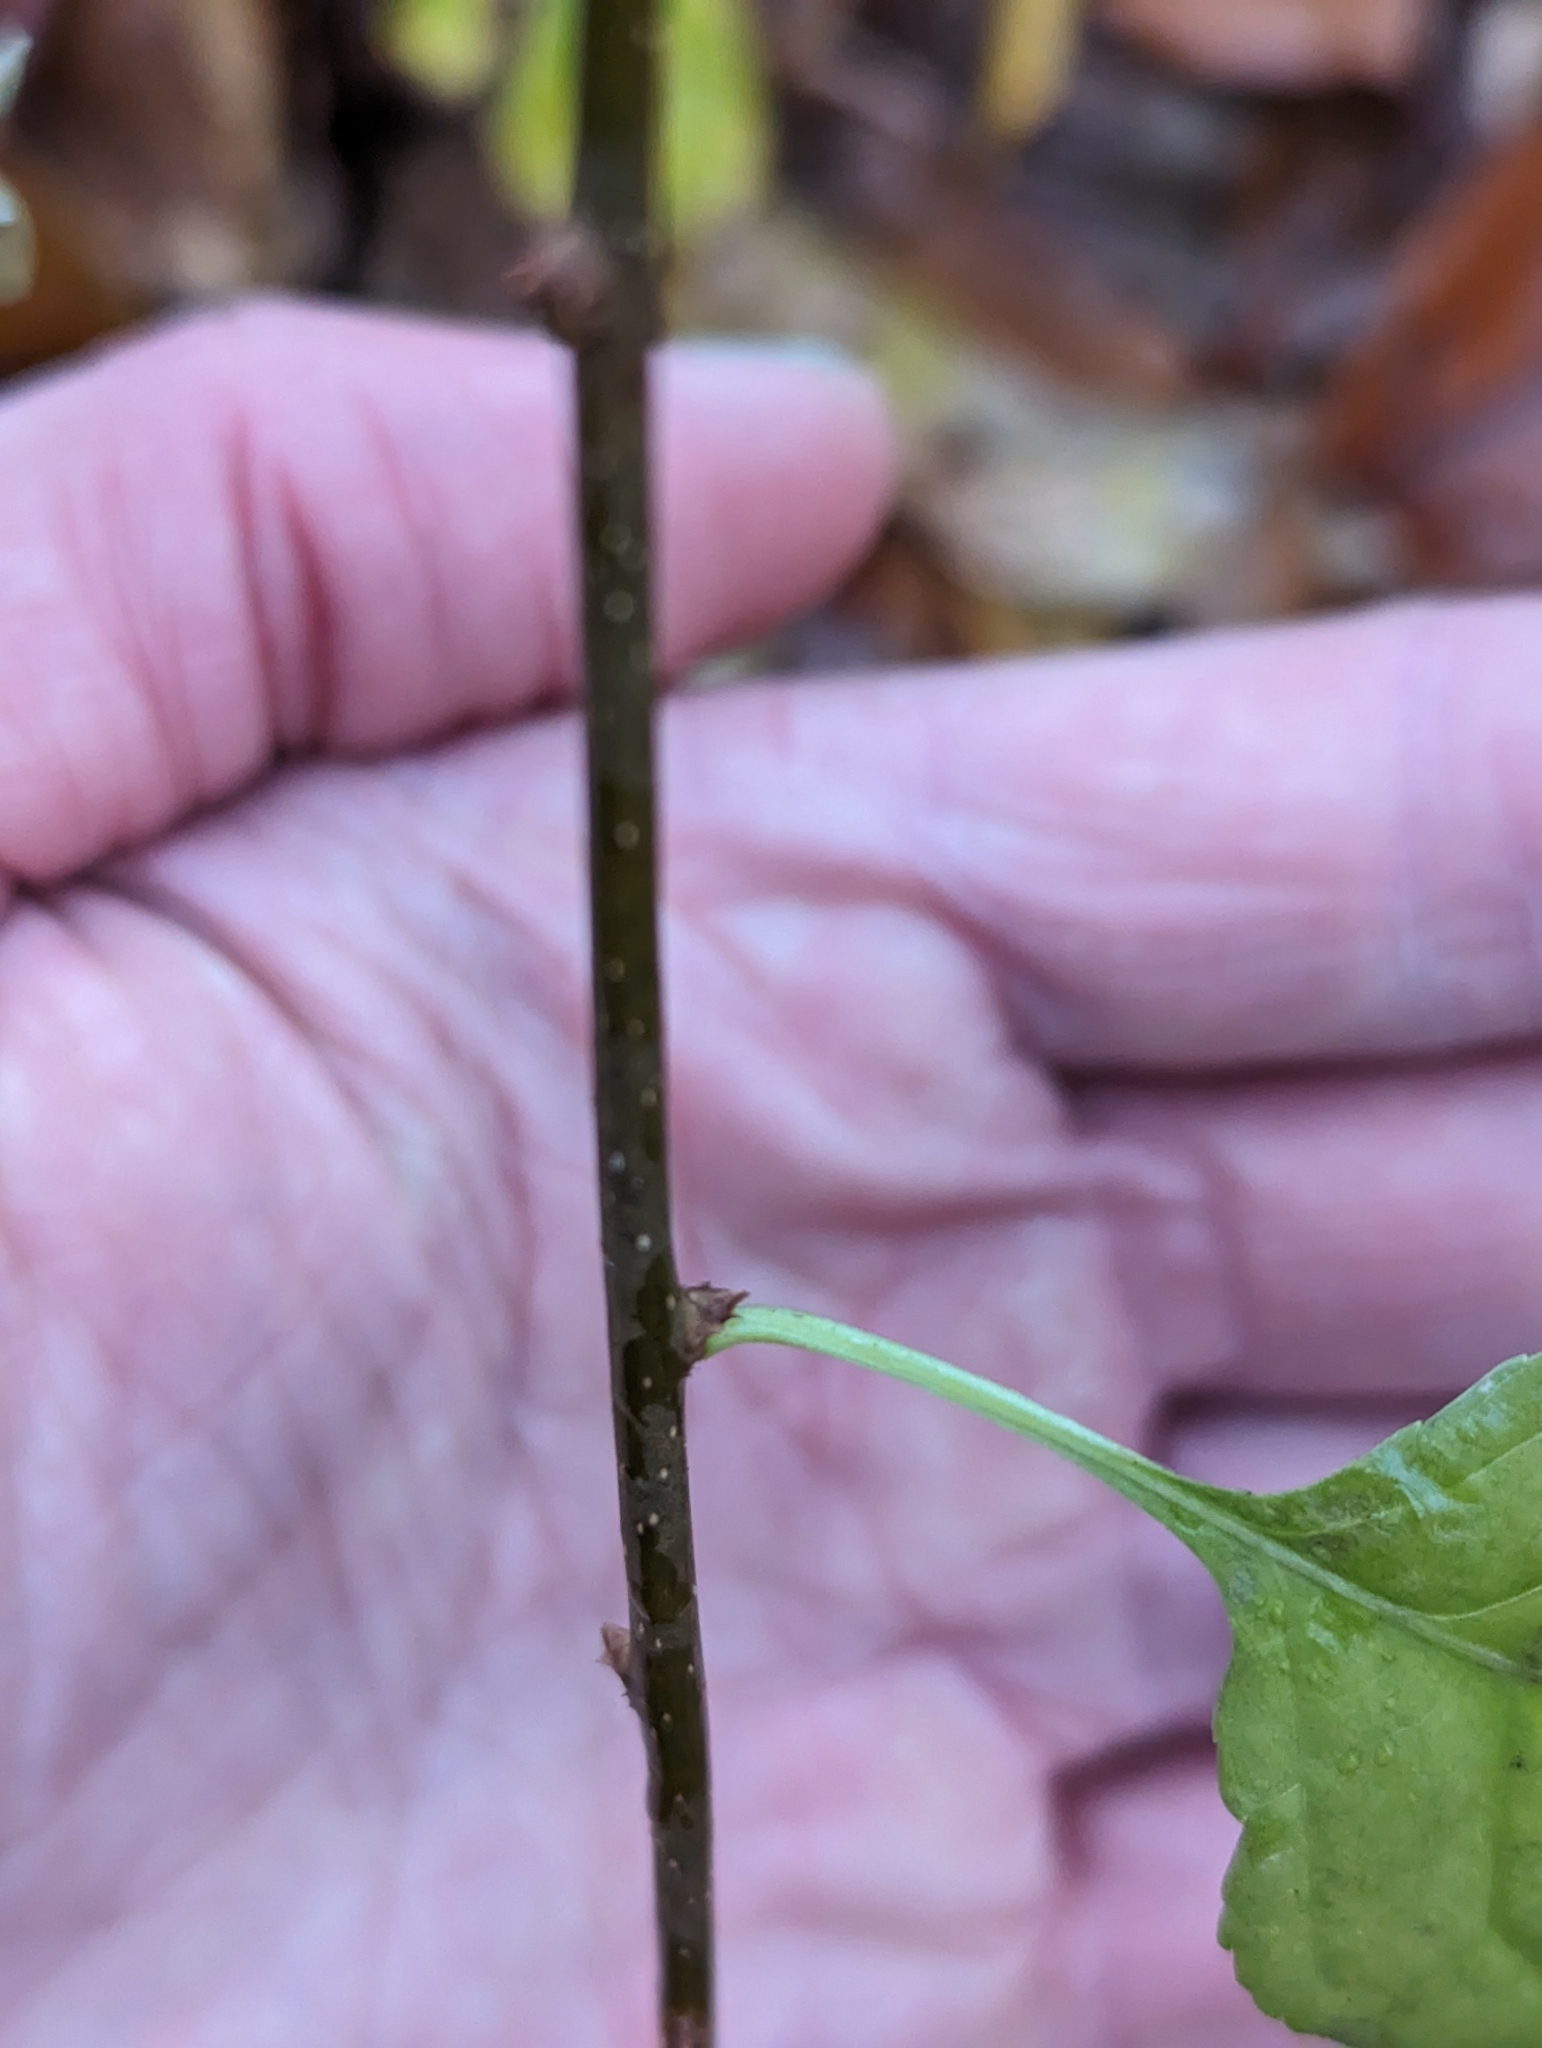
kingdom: Plantae
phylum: Tracheophyta
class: Magnoliopsida
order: Celastrales
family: Celastraceae
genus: Celastrus
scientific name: Celastrus orbiculatus
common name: Oriental bittersweet
